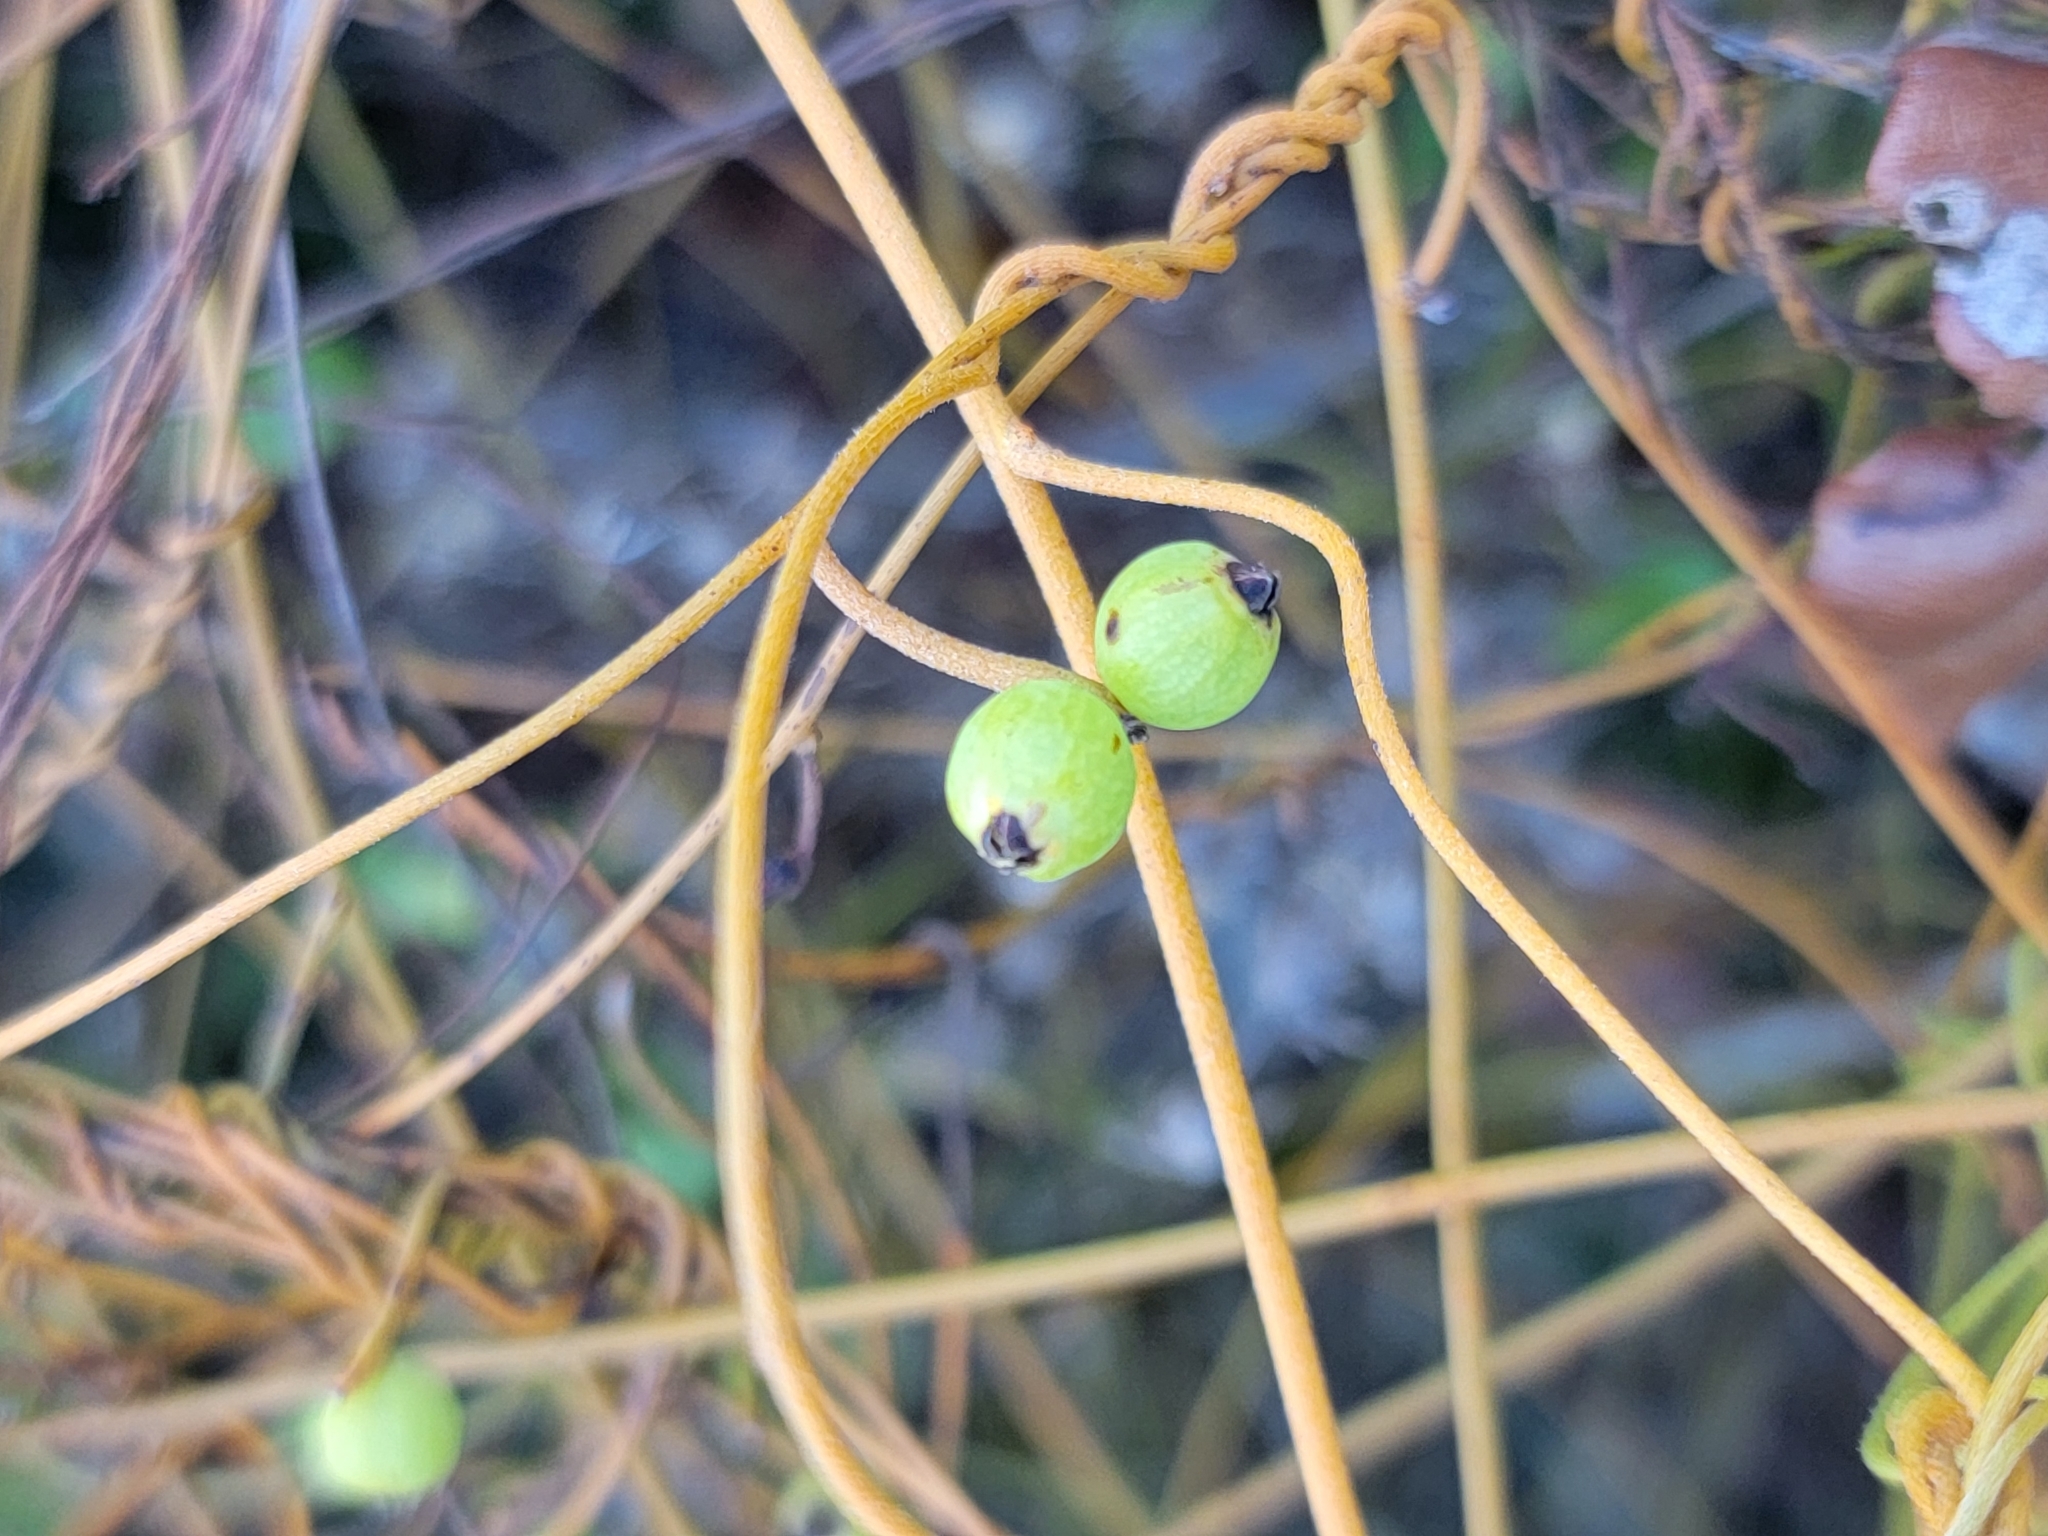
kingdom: Plantae
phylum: Tracheophyta
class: Magnoliopsida
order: Laurales
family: Lauraceae
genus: Cassytha
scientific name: Cassytha filiformis
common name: Dodder-laurel
